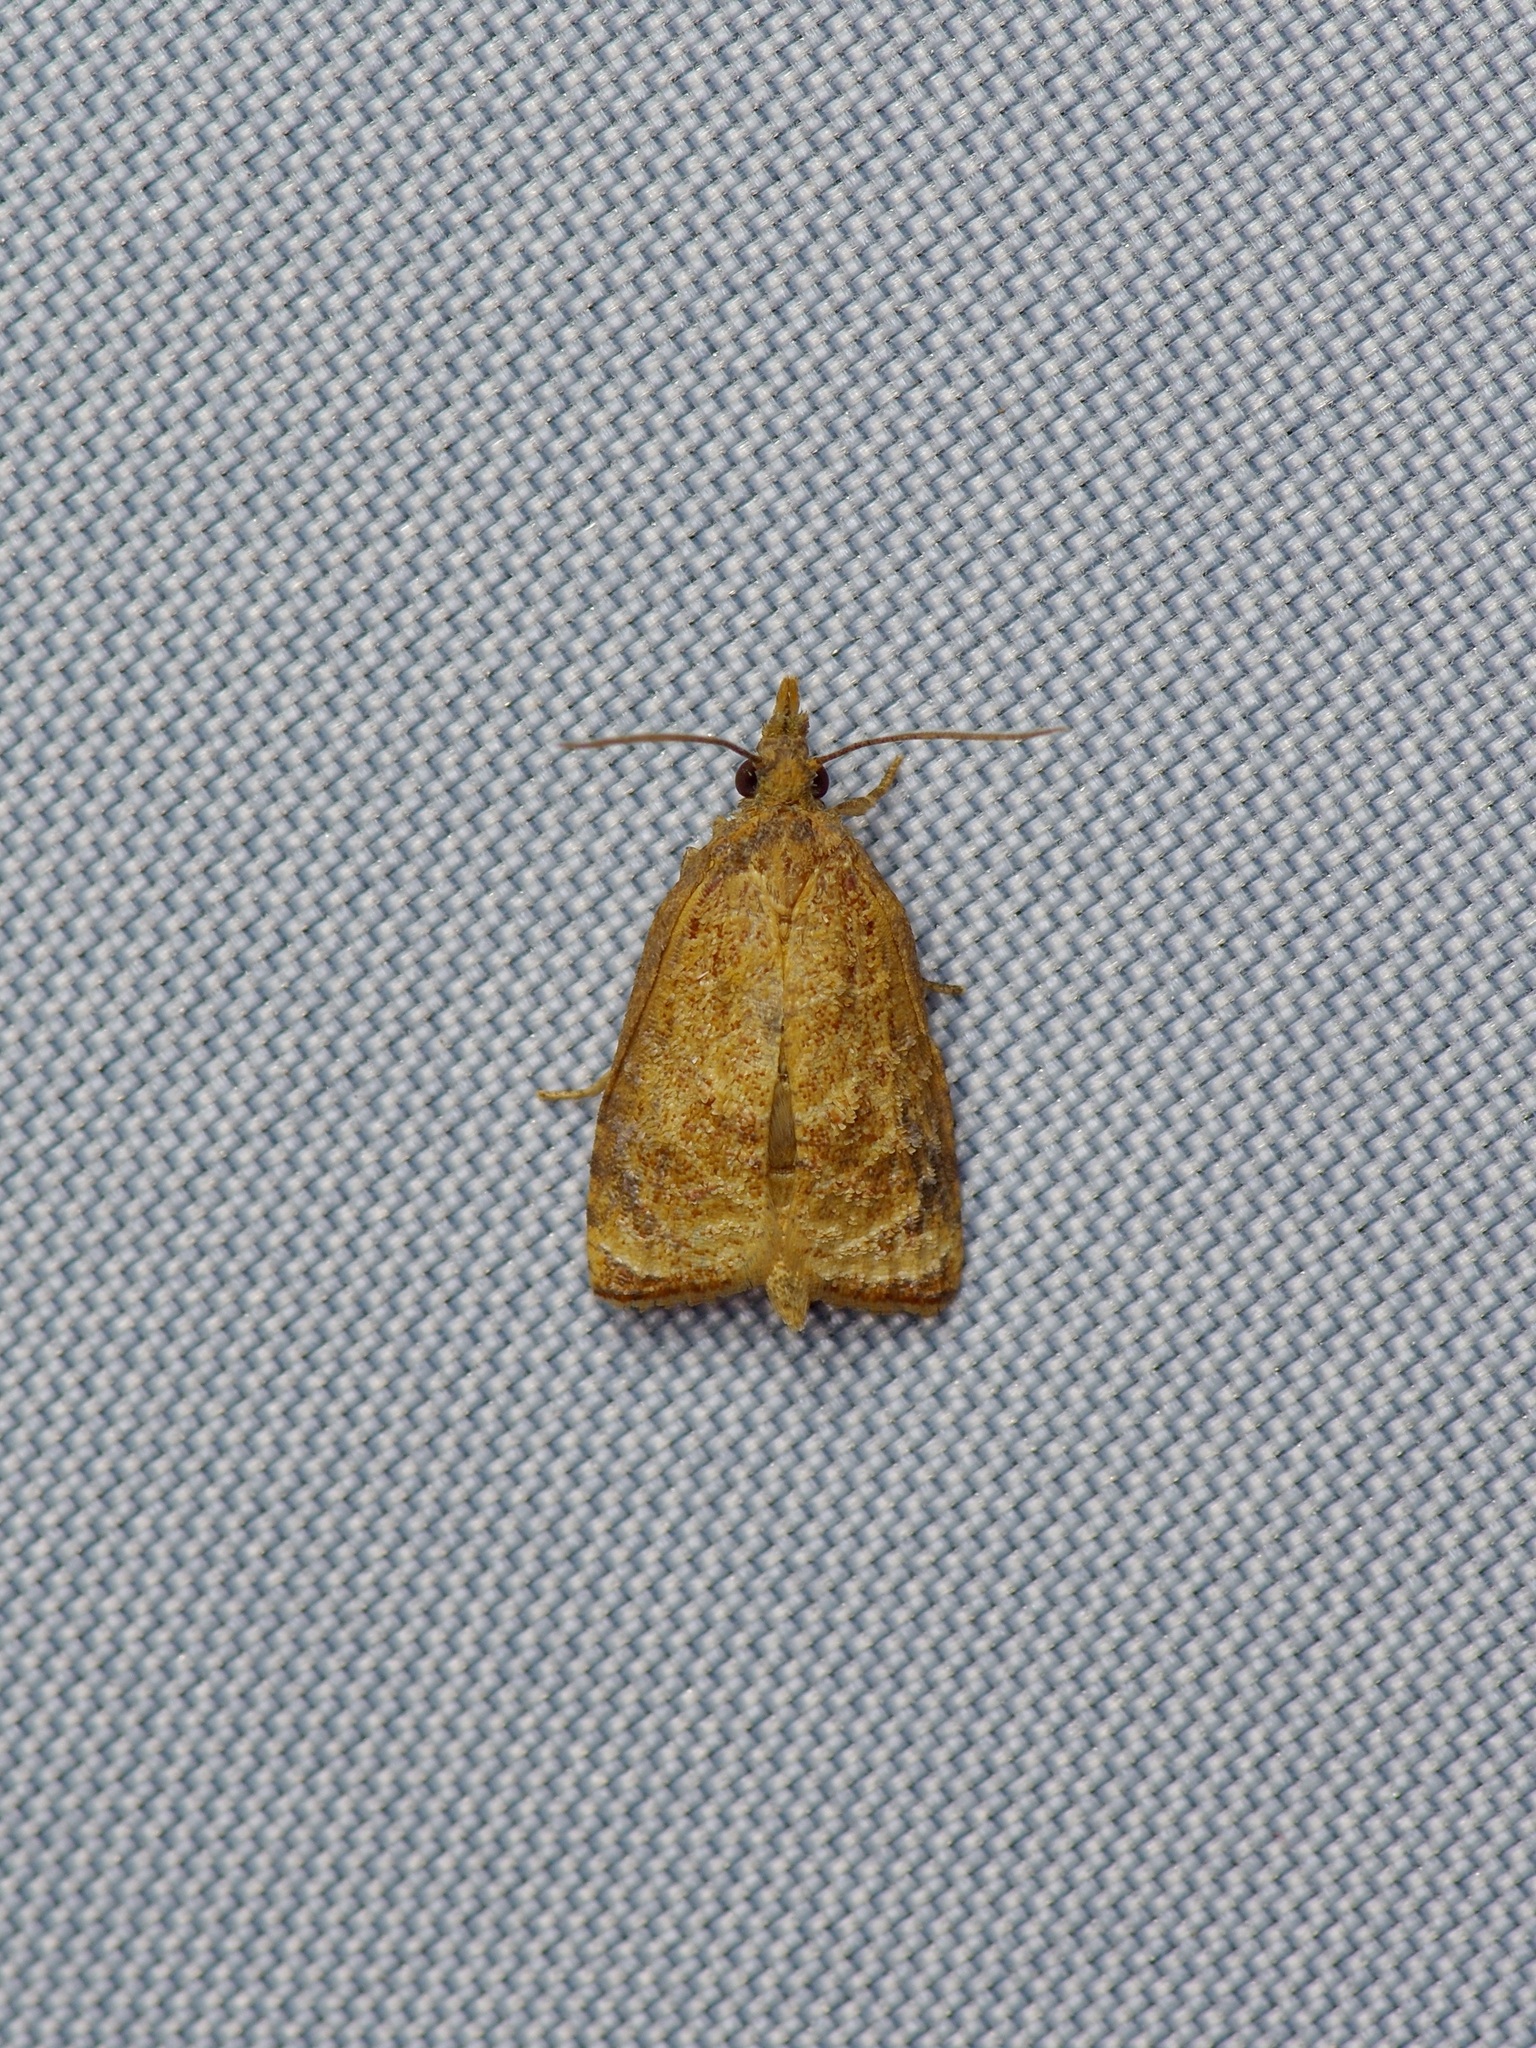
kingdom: Animalia
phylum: Arthropoda
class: Insecta
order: Lepidoptera
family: Tortricidae
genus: Platynota
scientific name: Platynota rostrana
